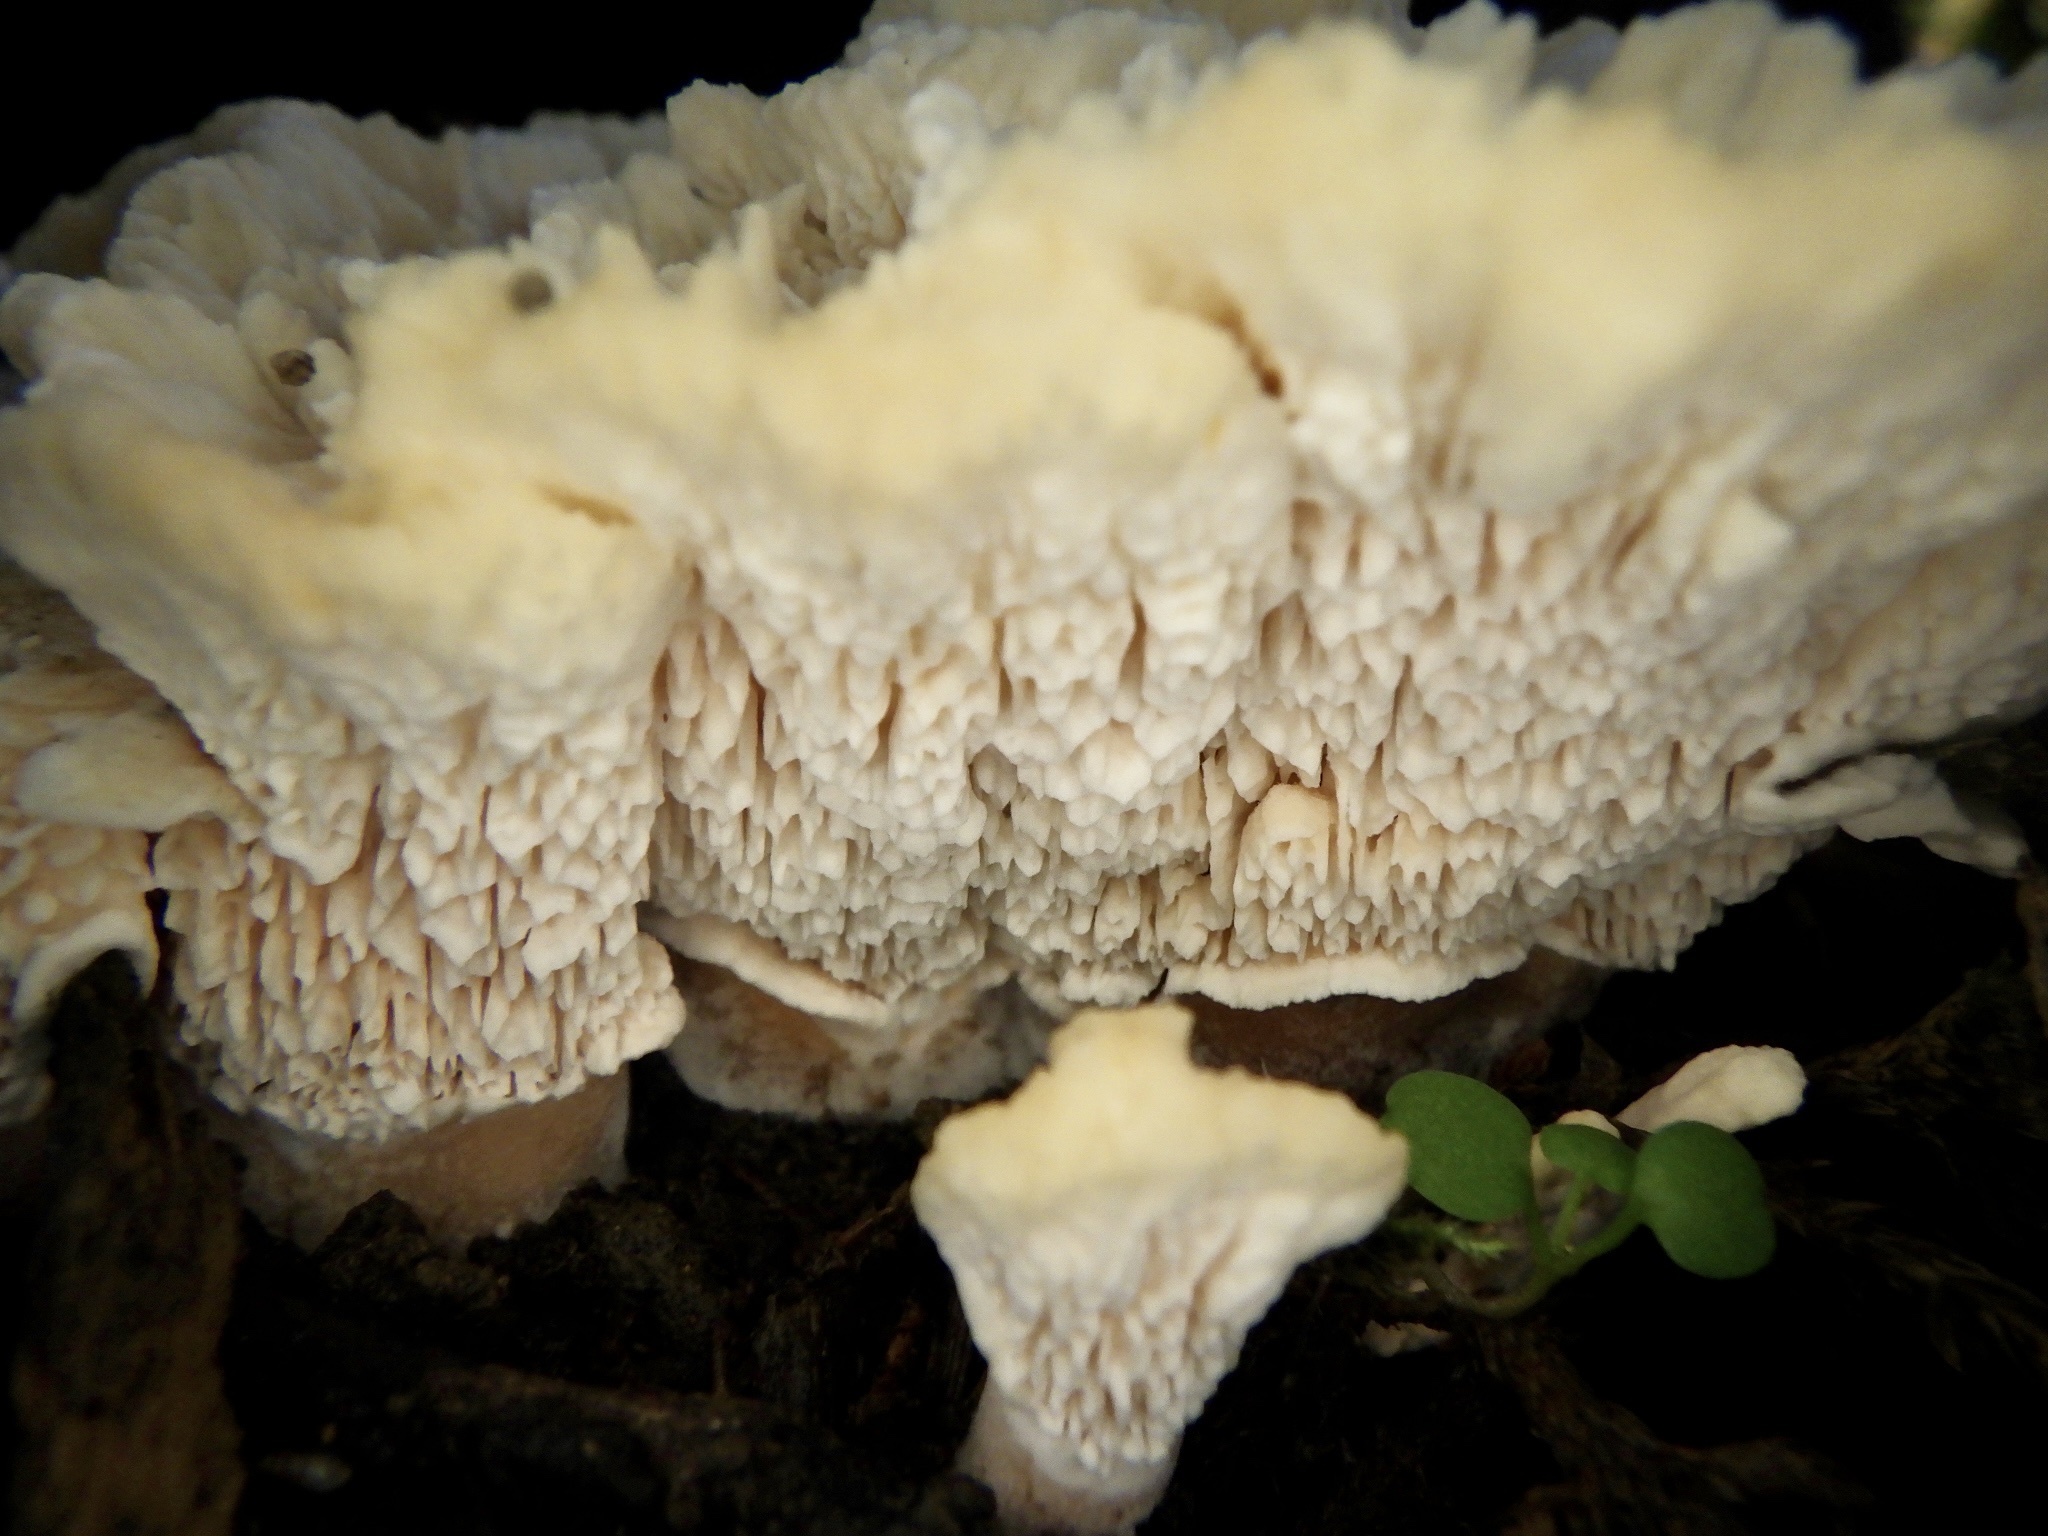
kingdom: Fungi
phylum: Basidiomycota
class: Agaricomycetes
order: Polyporales
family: Podoscyphaceae
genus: Abortiporus
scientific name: Abortiporus biennis
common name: Blushing rosette
